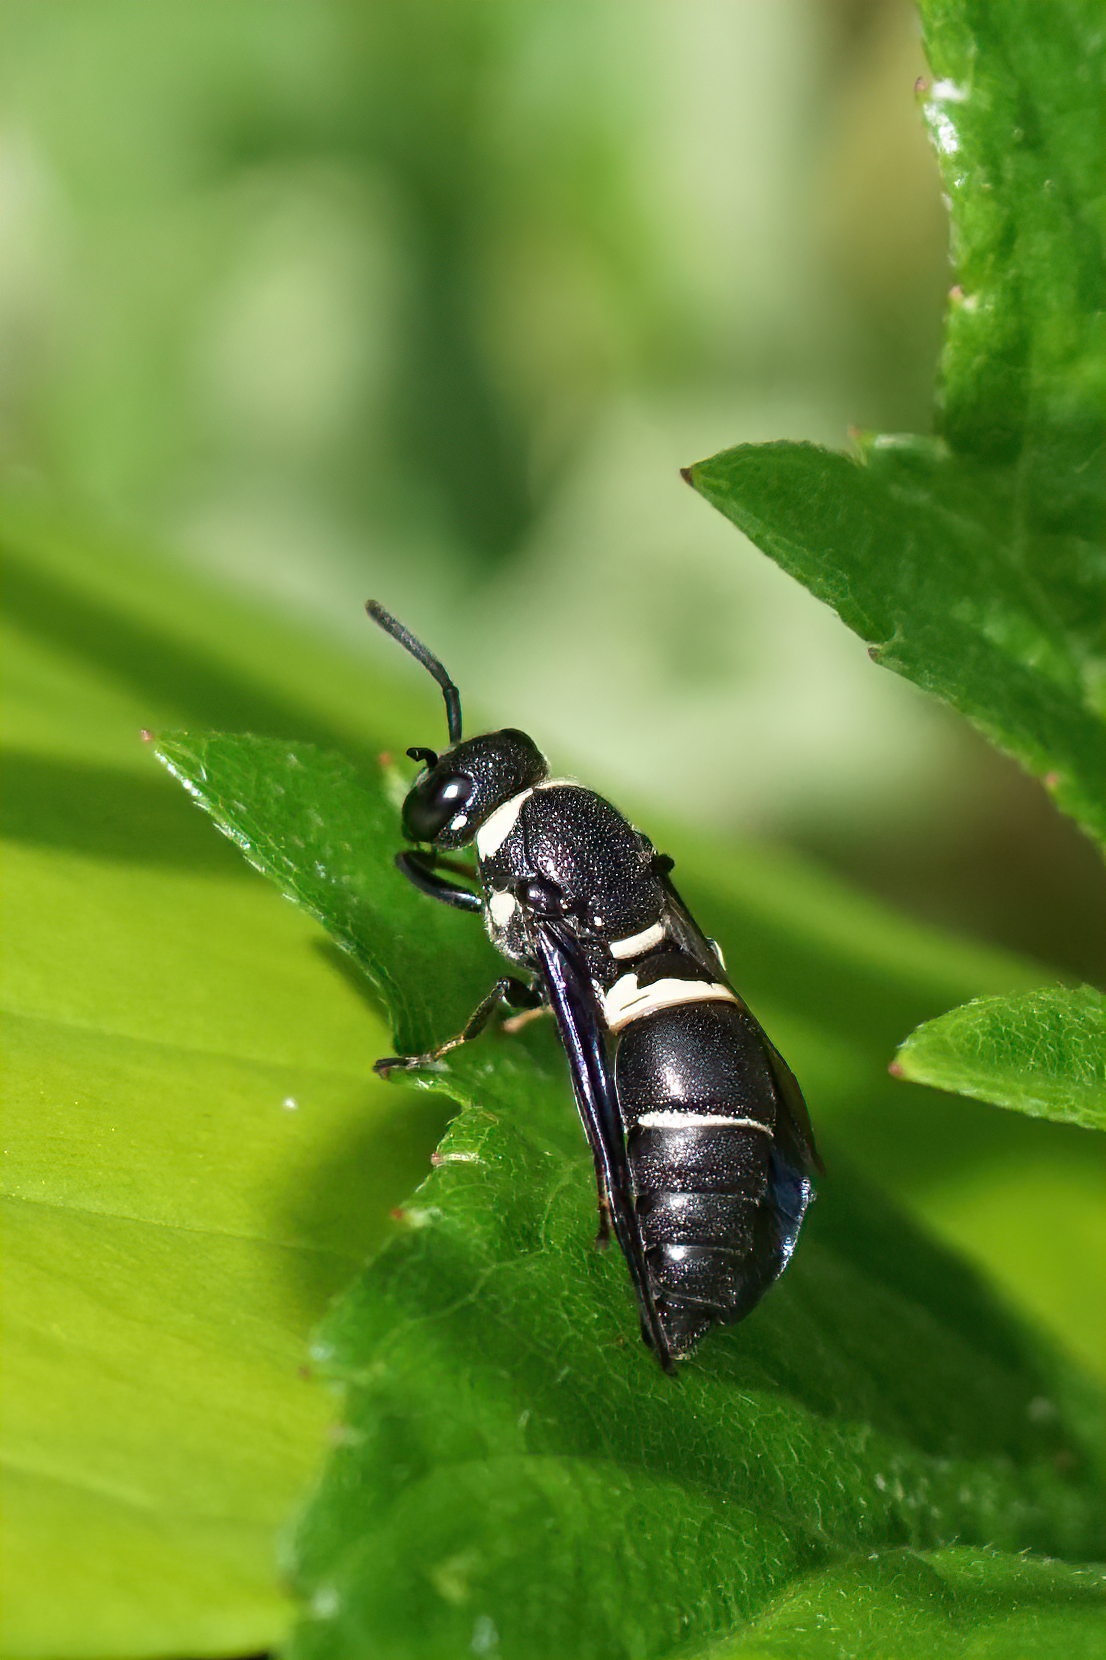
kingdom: Animalia
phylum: Arthropoda
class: Insecta
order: Hymenoptera
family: Eumenidae
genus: Euodynerus
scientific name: Euodynerus megaera
